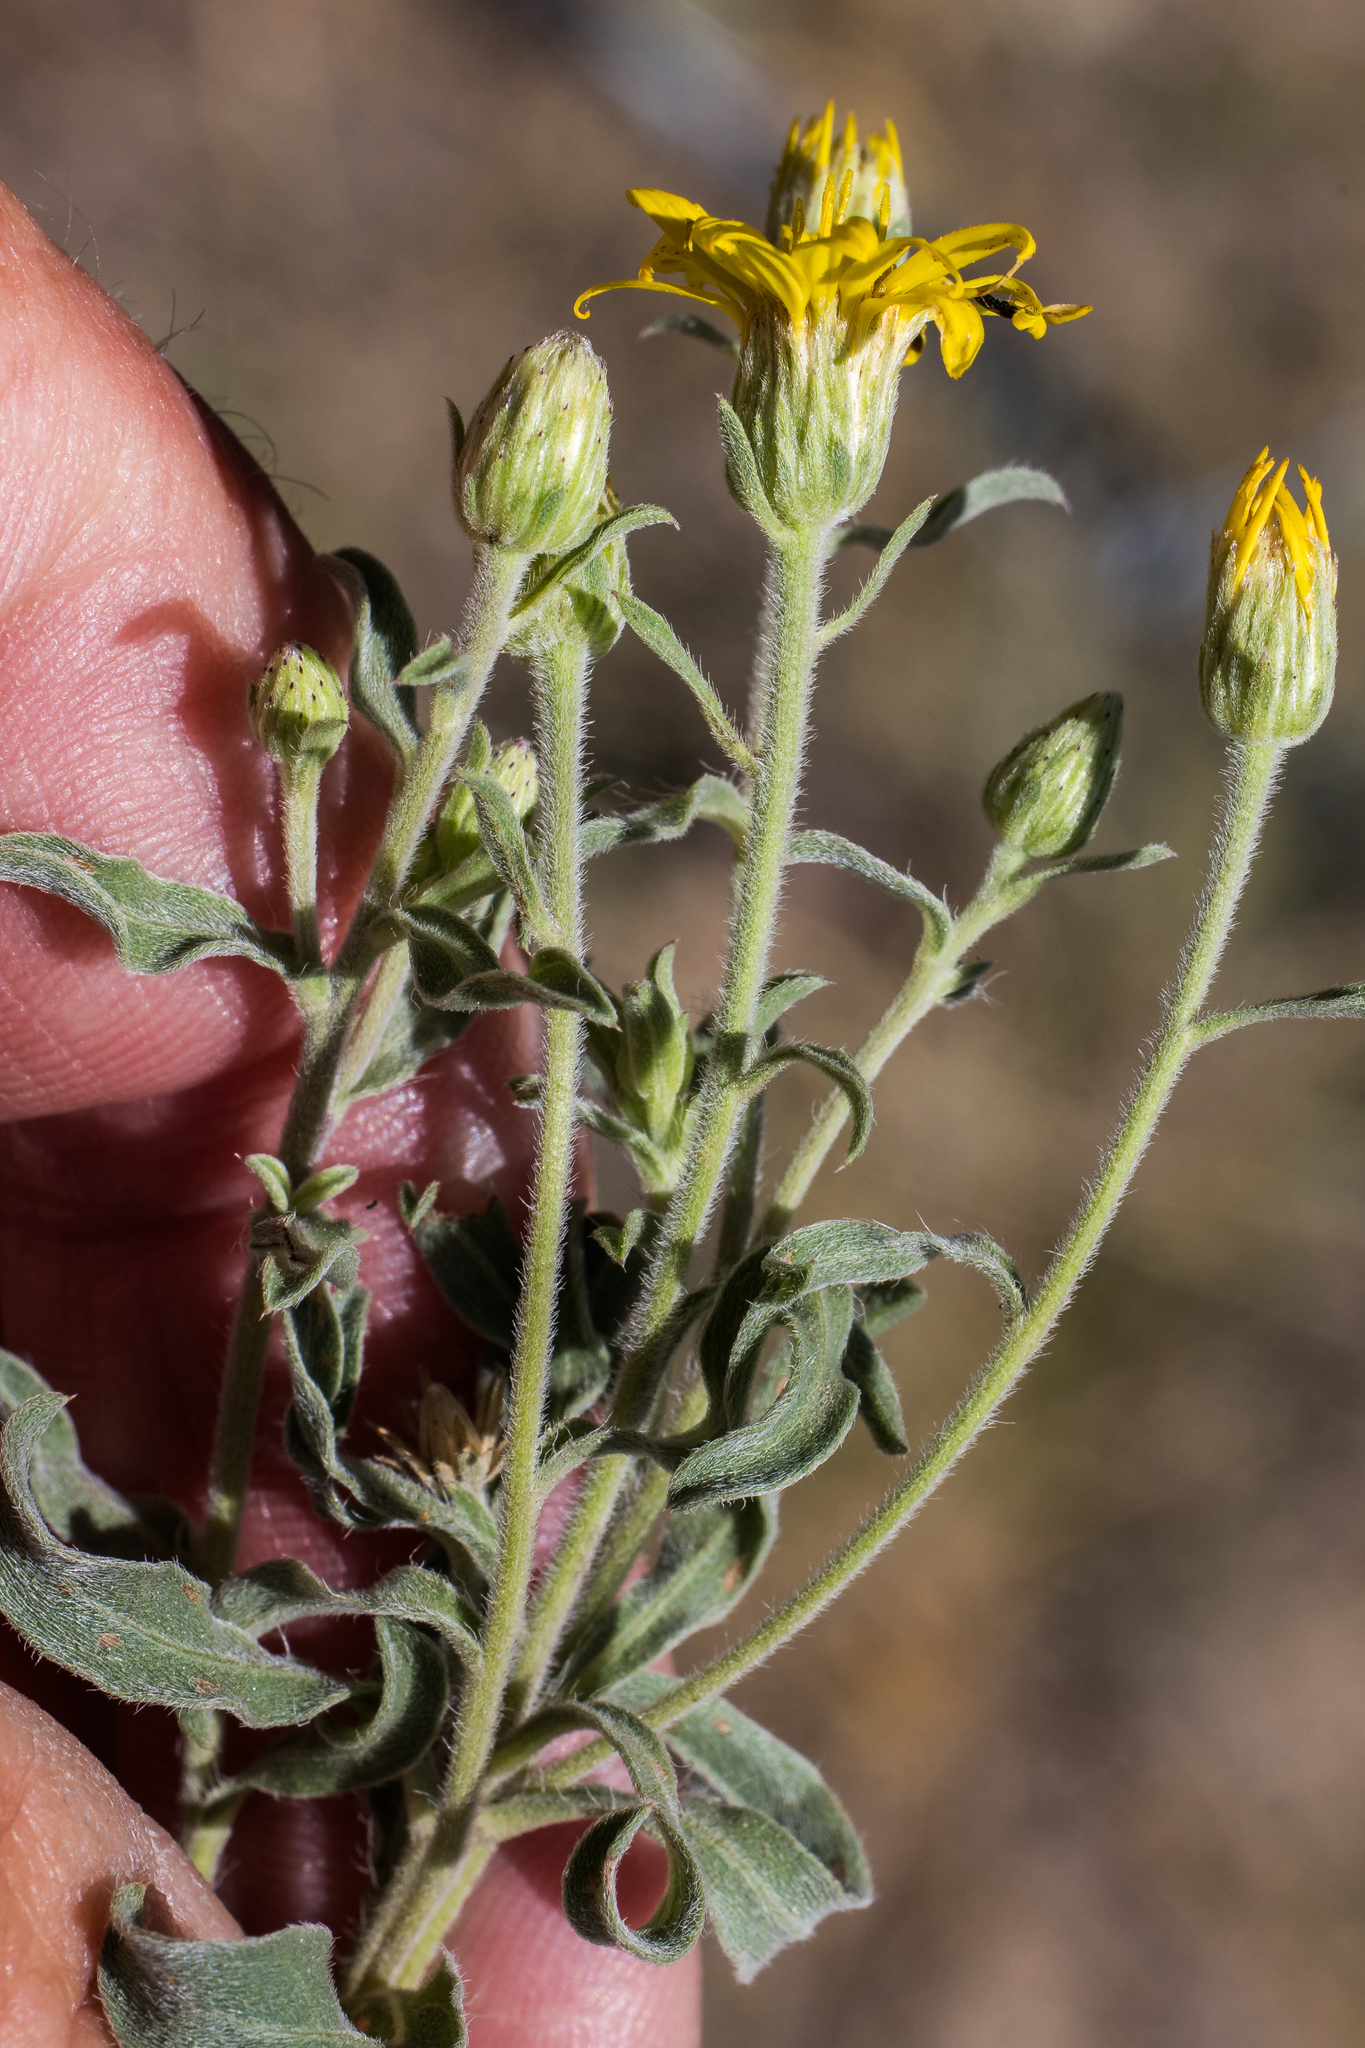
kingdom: Plantae
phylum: Tracheophyta
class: Magnoliopsida
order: Asterales
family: Asteraceae
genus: Heterotheca
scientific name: Heterotheca hirsutissima
